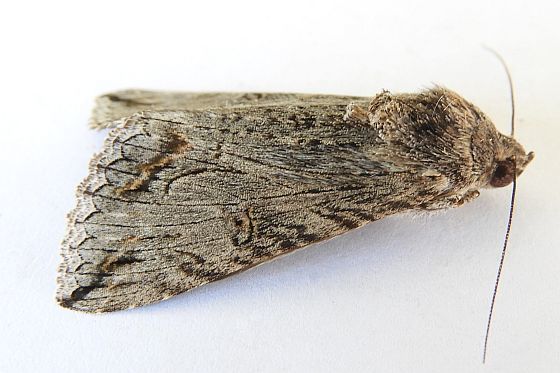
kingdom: Animalia
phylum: Arthropoda
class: Insecta
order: Lepidoptera
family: Erebidae
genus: Melipotis
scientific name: Melipotis jucunda
